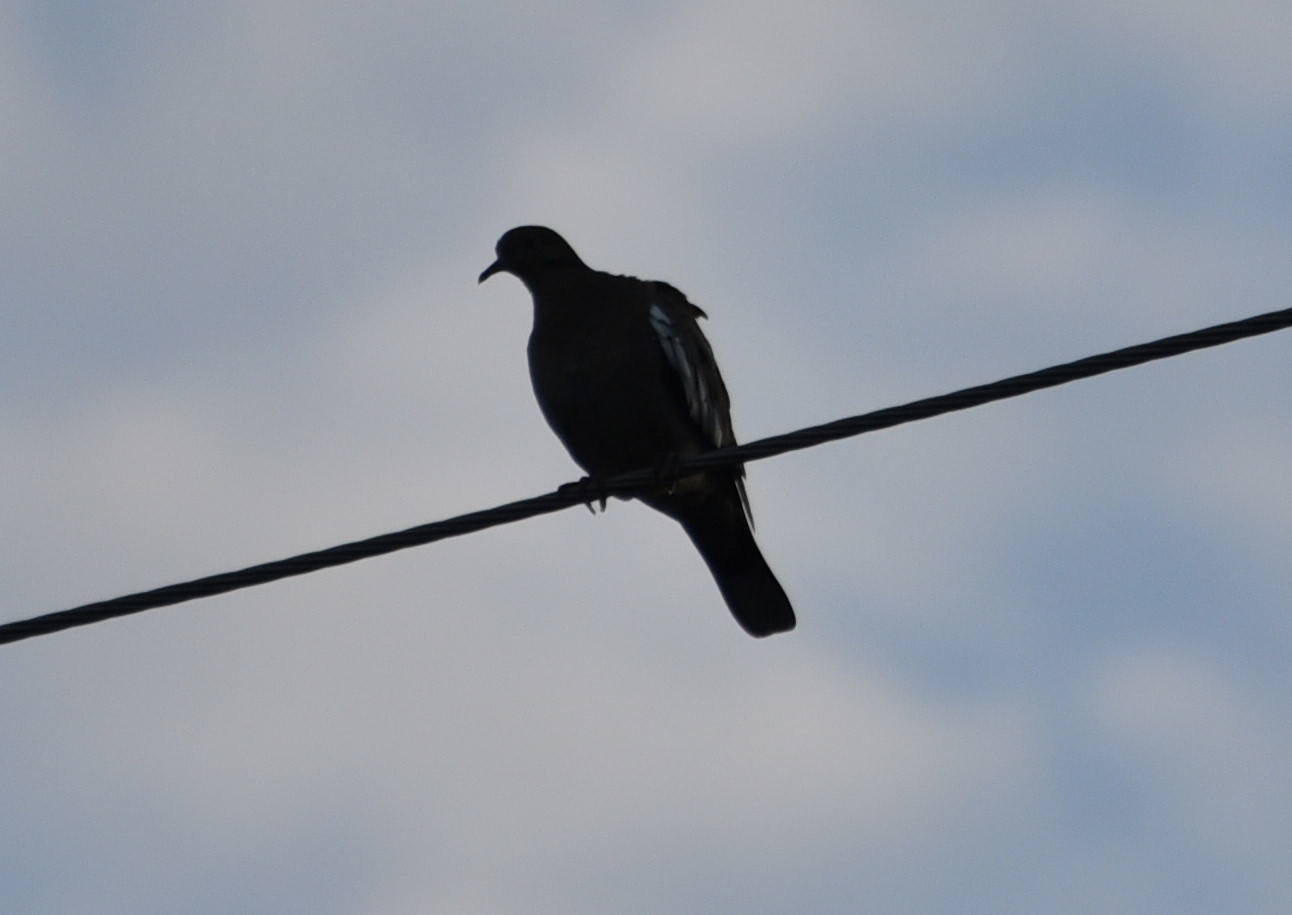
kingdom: Animalia
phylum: Chordata
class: Aves
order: Columbiformes
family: Columbidae
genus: Zenaida
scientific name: Zenaida asiatica
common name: White-winged dove
